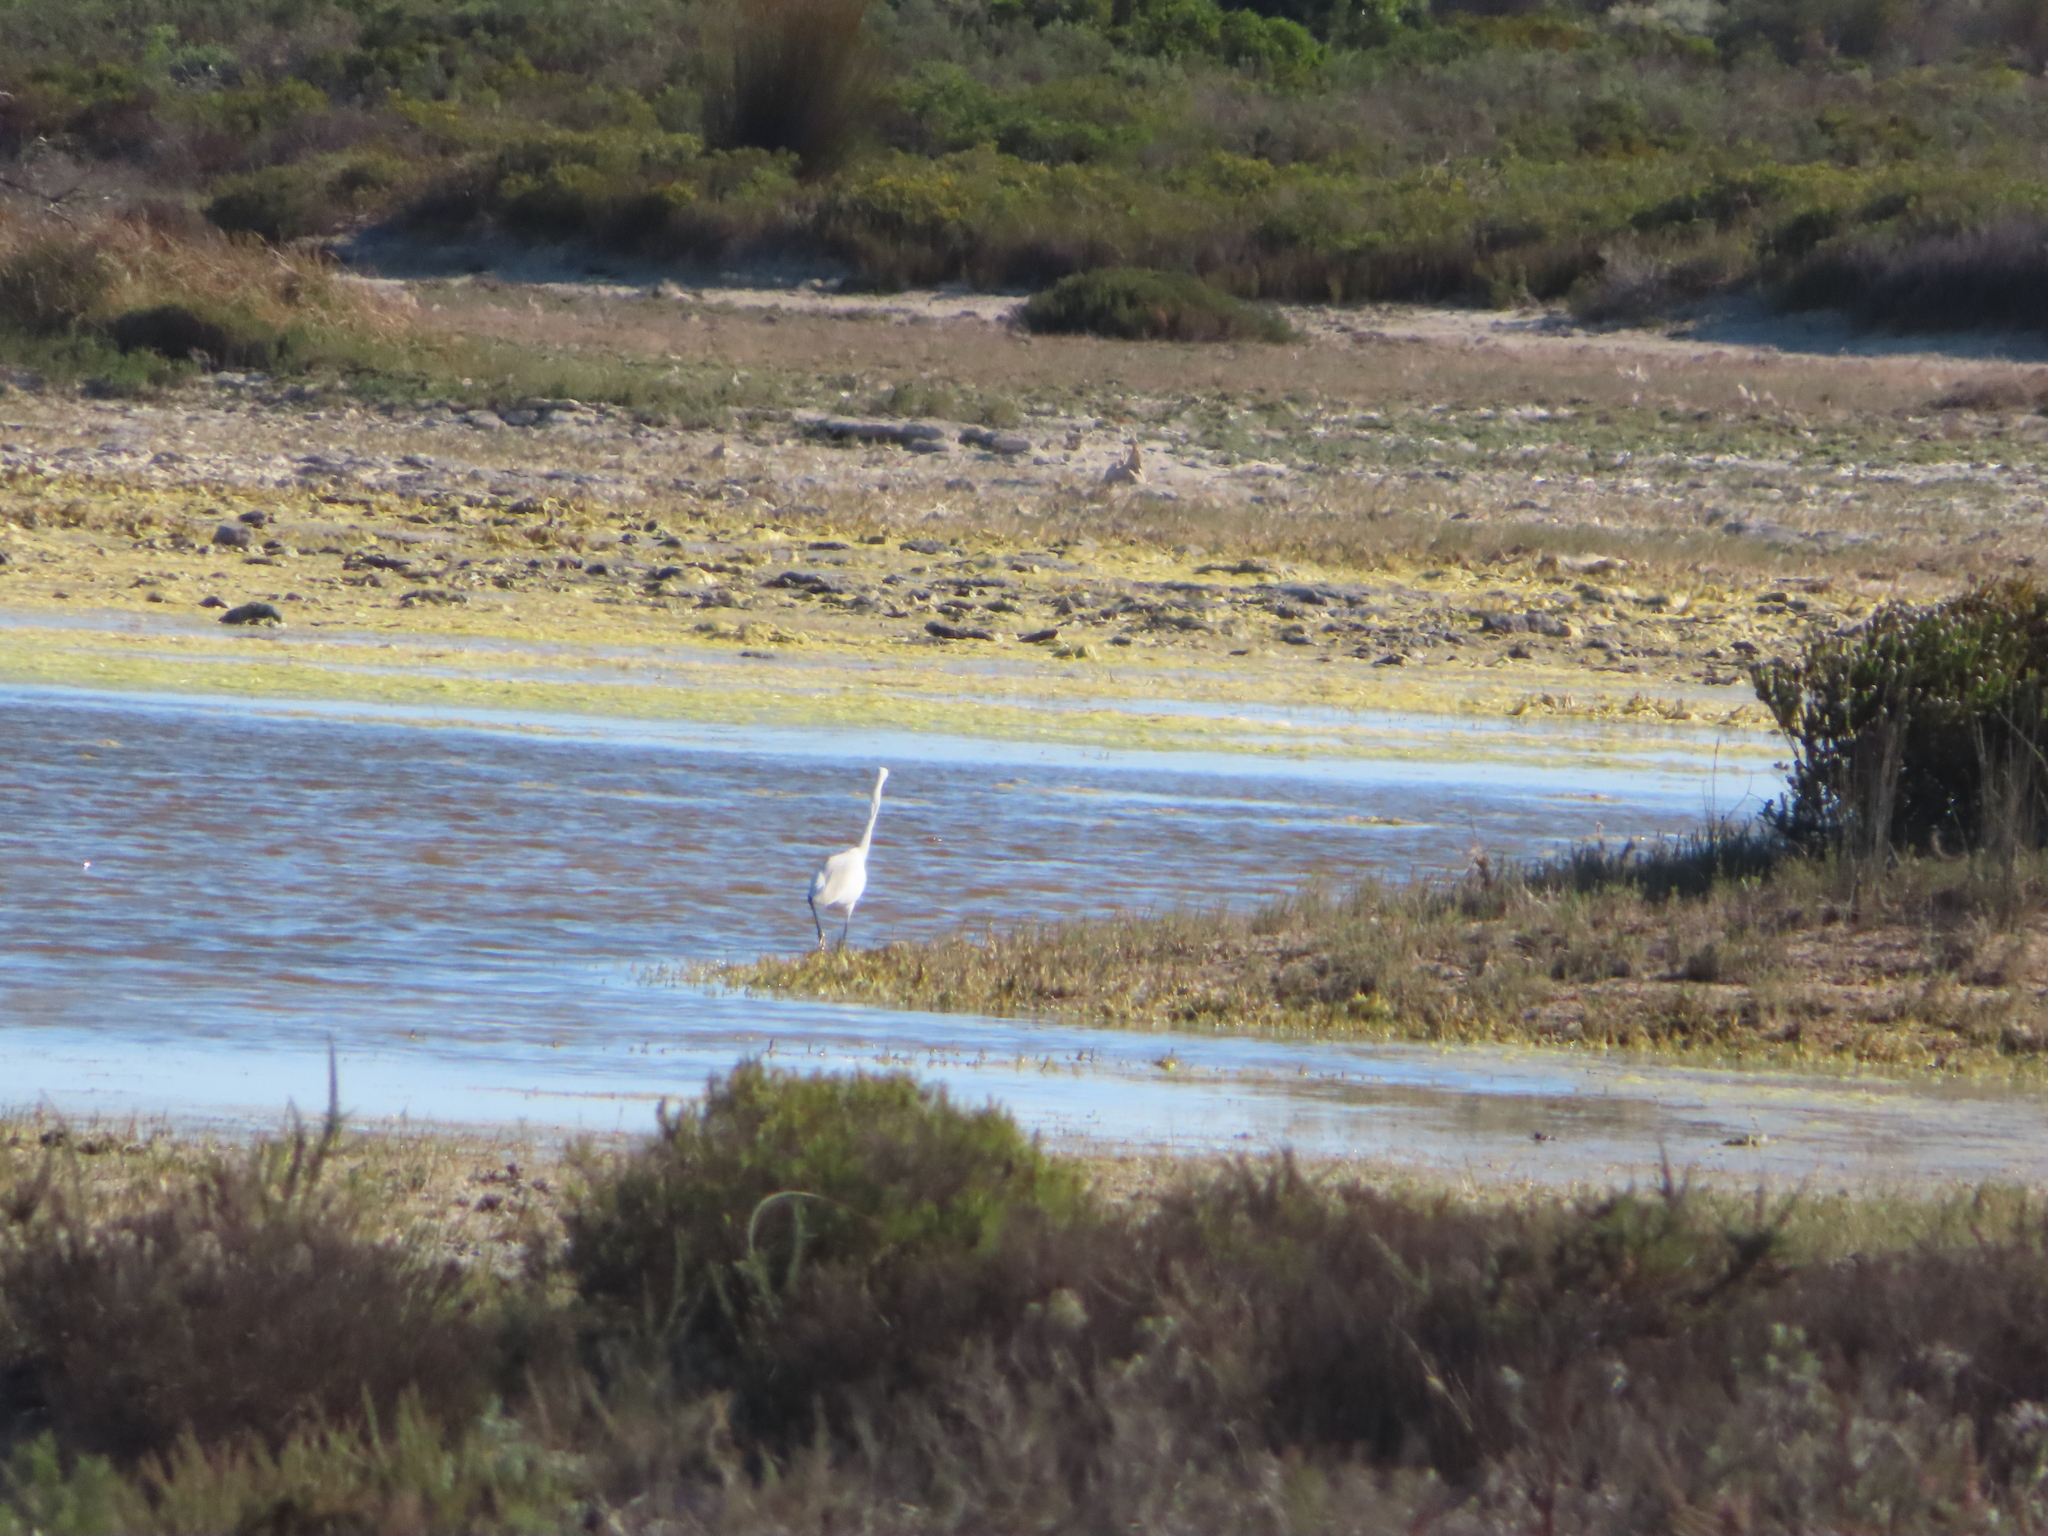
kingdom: Animalia
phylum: Chordata
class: Aves
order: Pelecaniformes
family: Ardeidae
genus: Egretta
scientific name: Egretta garzetta
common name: Little egret
